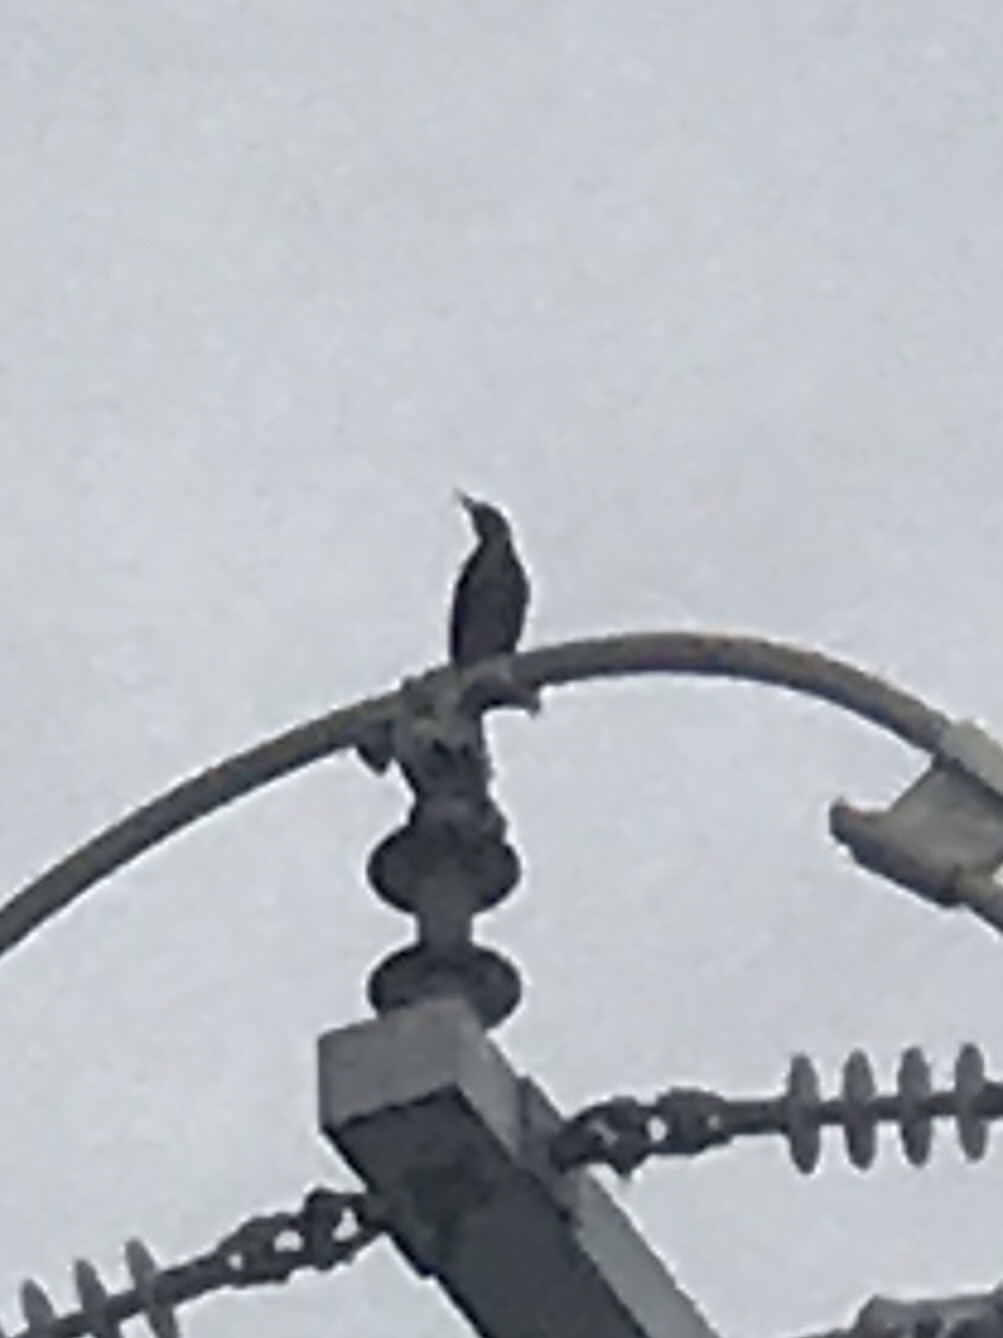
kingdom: Animalia
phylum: Chordata
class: Aves
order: Passeriformes
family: Sturnidae
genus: Sturnus
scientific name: Sturnus vulgaris
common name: Common starling
